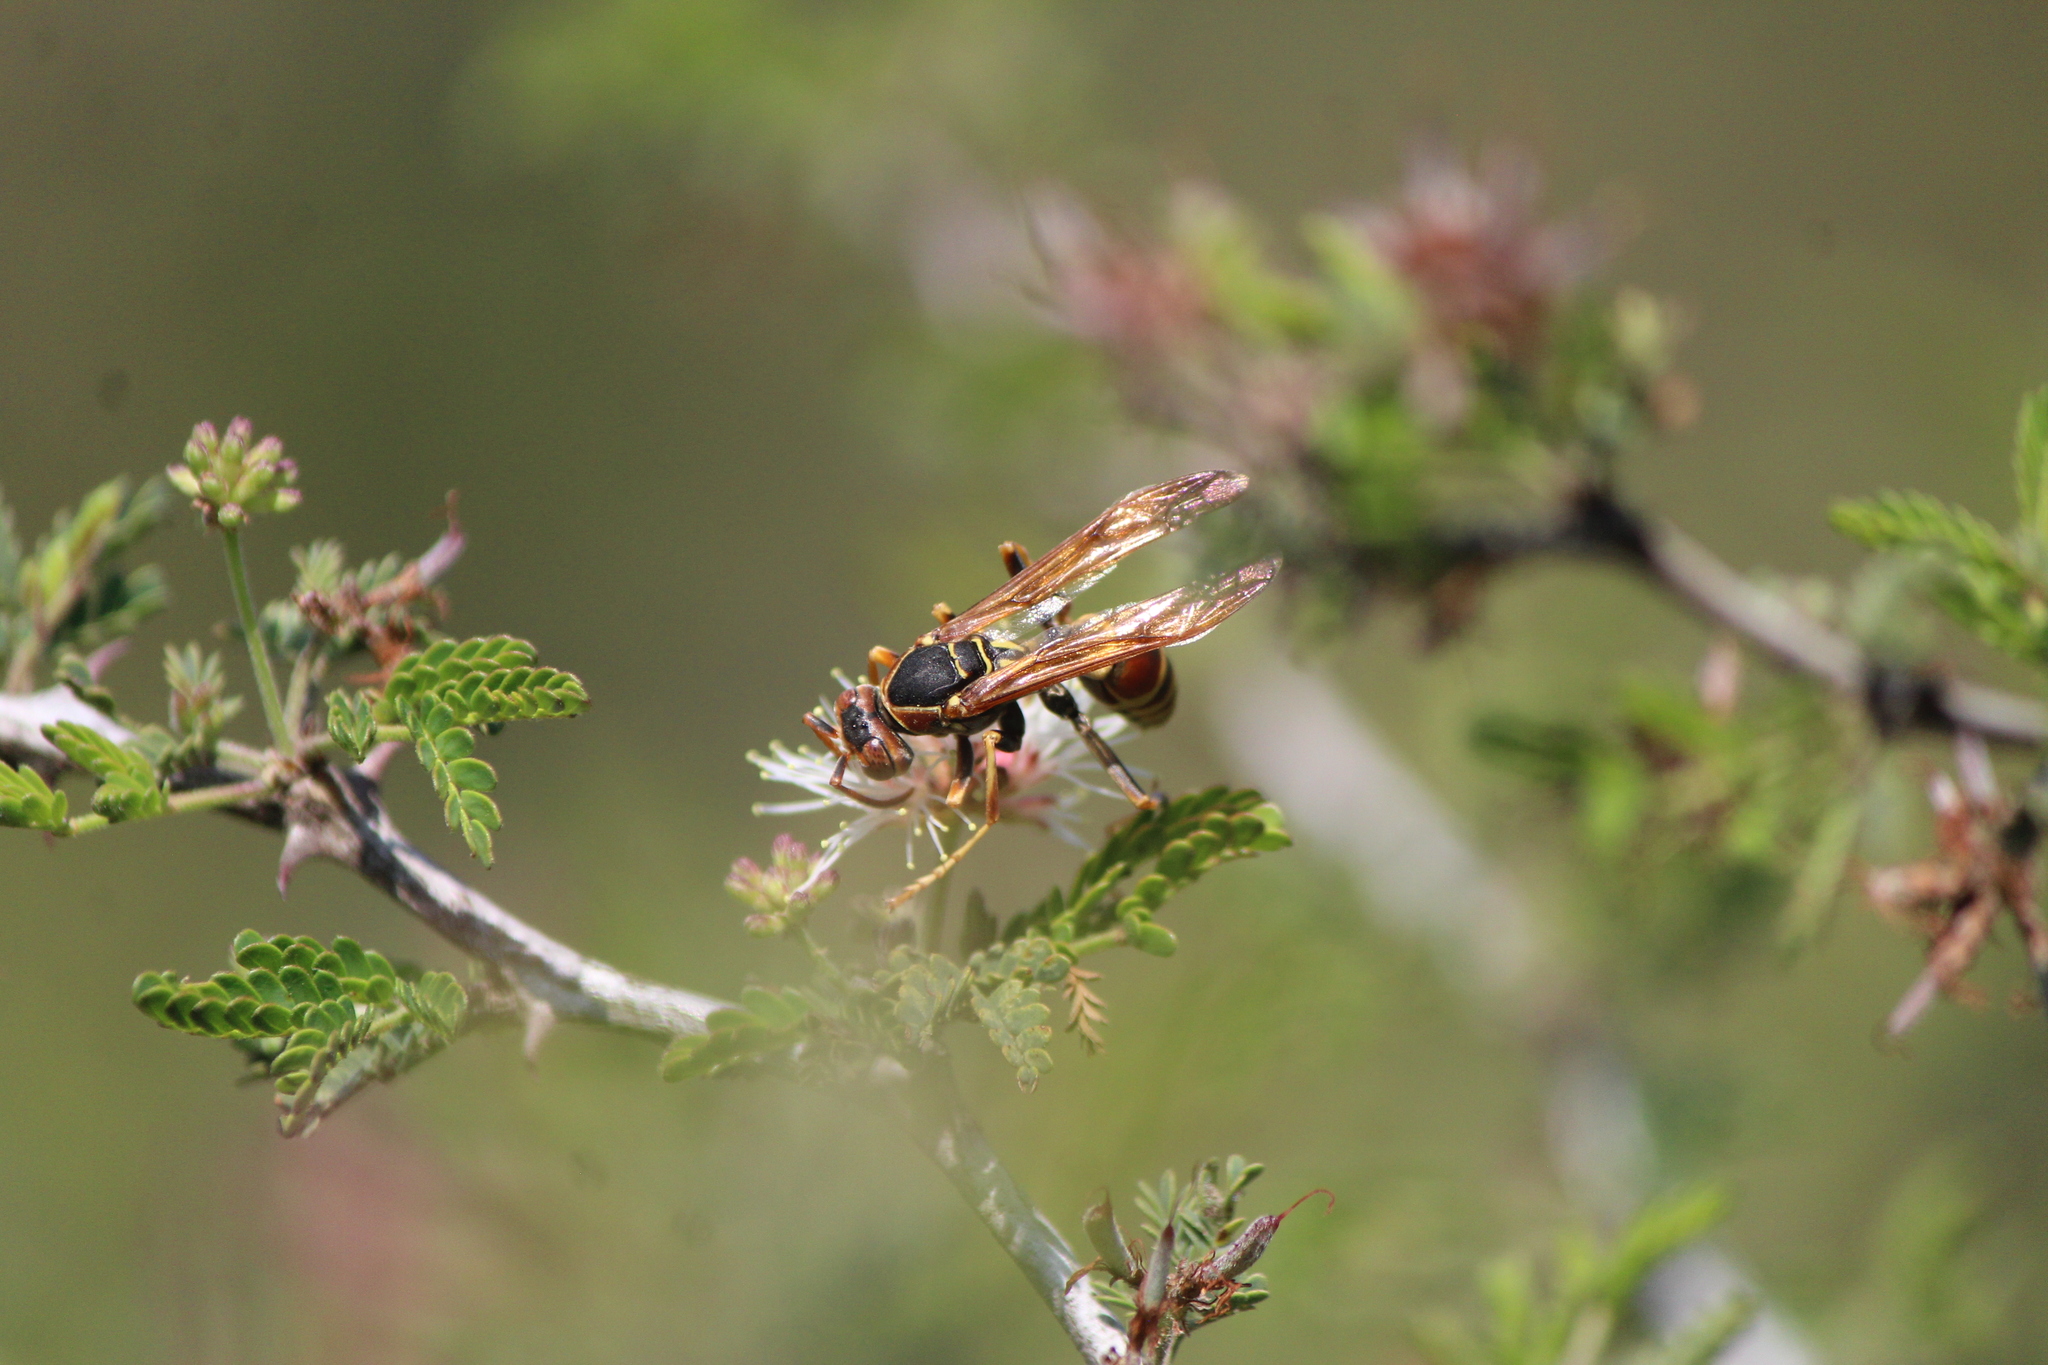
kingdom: Animalia
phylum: Arthropoda
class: Insecta
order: Hymenoptera
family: Eumenidae
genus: Polistes
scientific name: Polistes dorsalis
